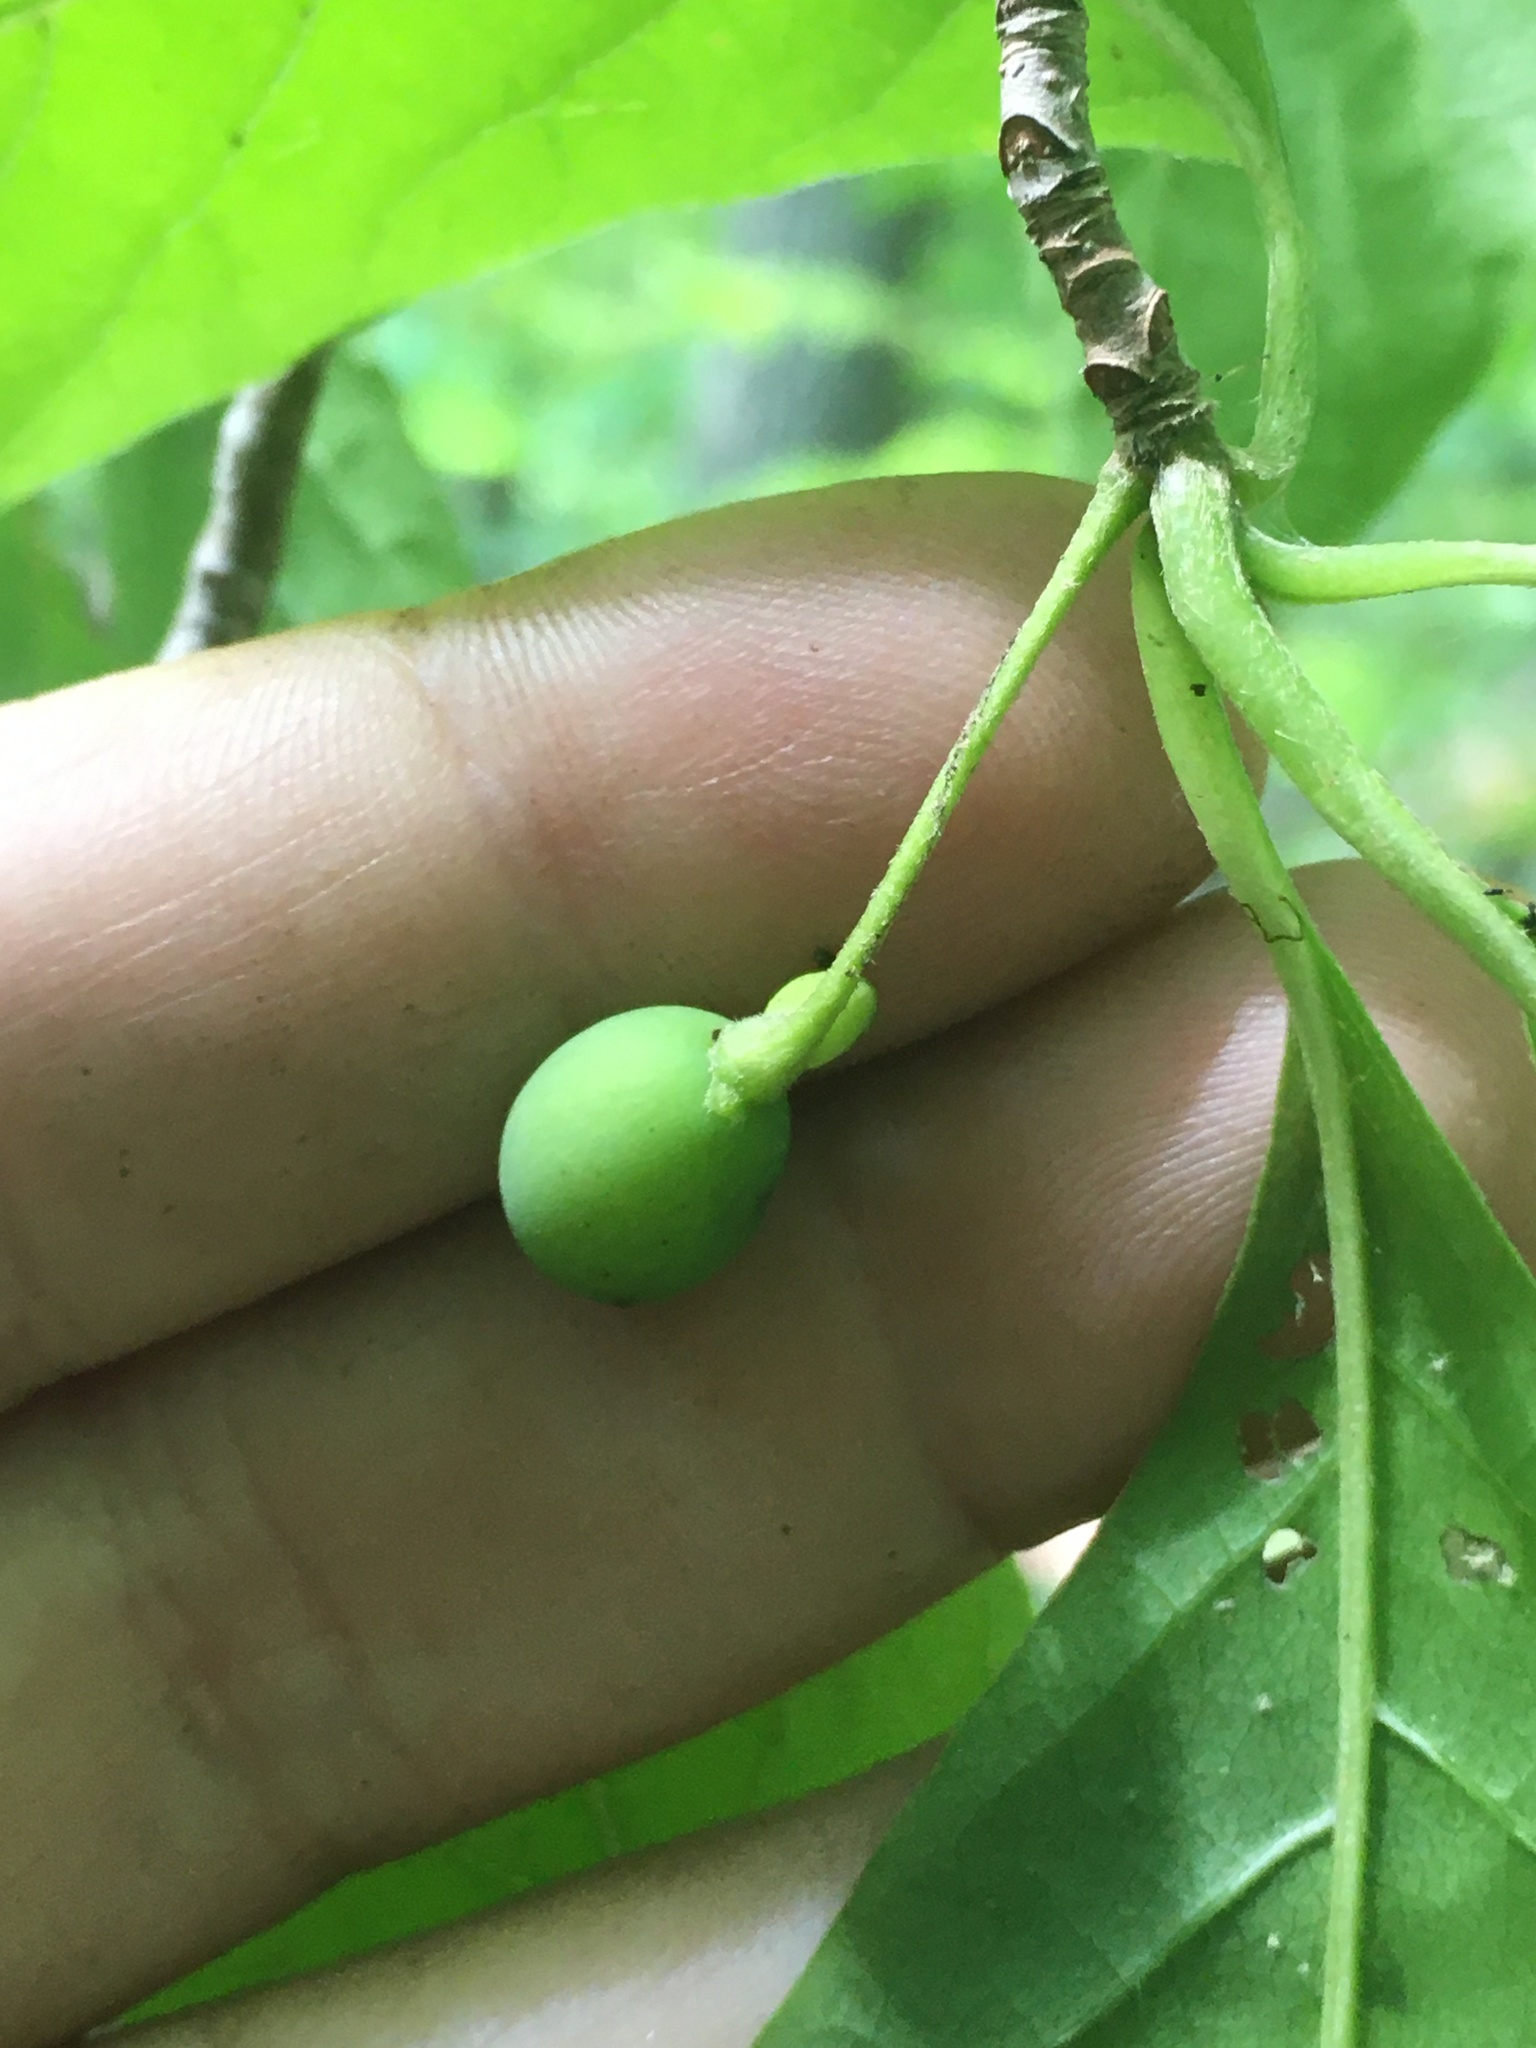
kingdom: Plantae
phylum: Tracheophyta
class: Magnoliopsida
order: Cornales
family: Nyssaceae
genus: Nyssa
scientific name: Nyssa sylvatica
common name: Black tupelo
